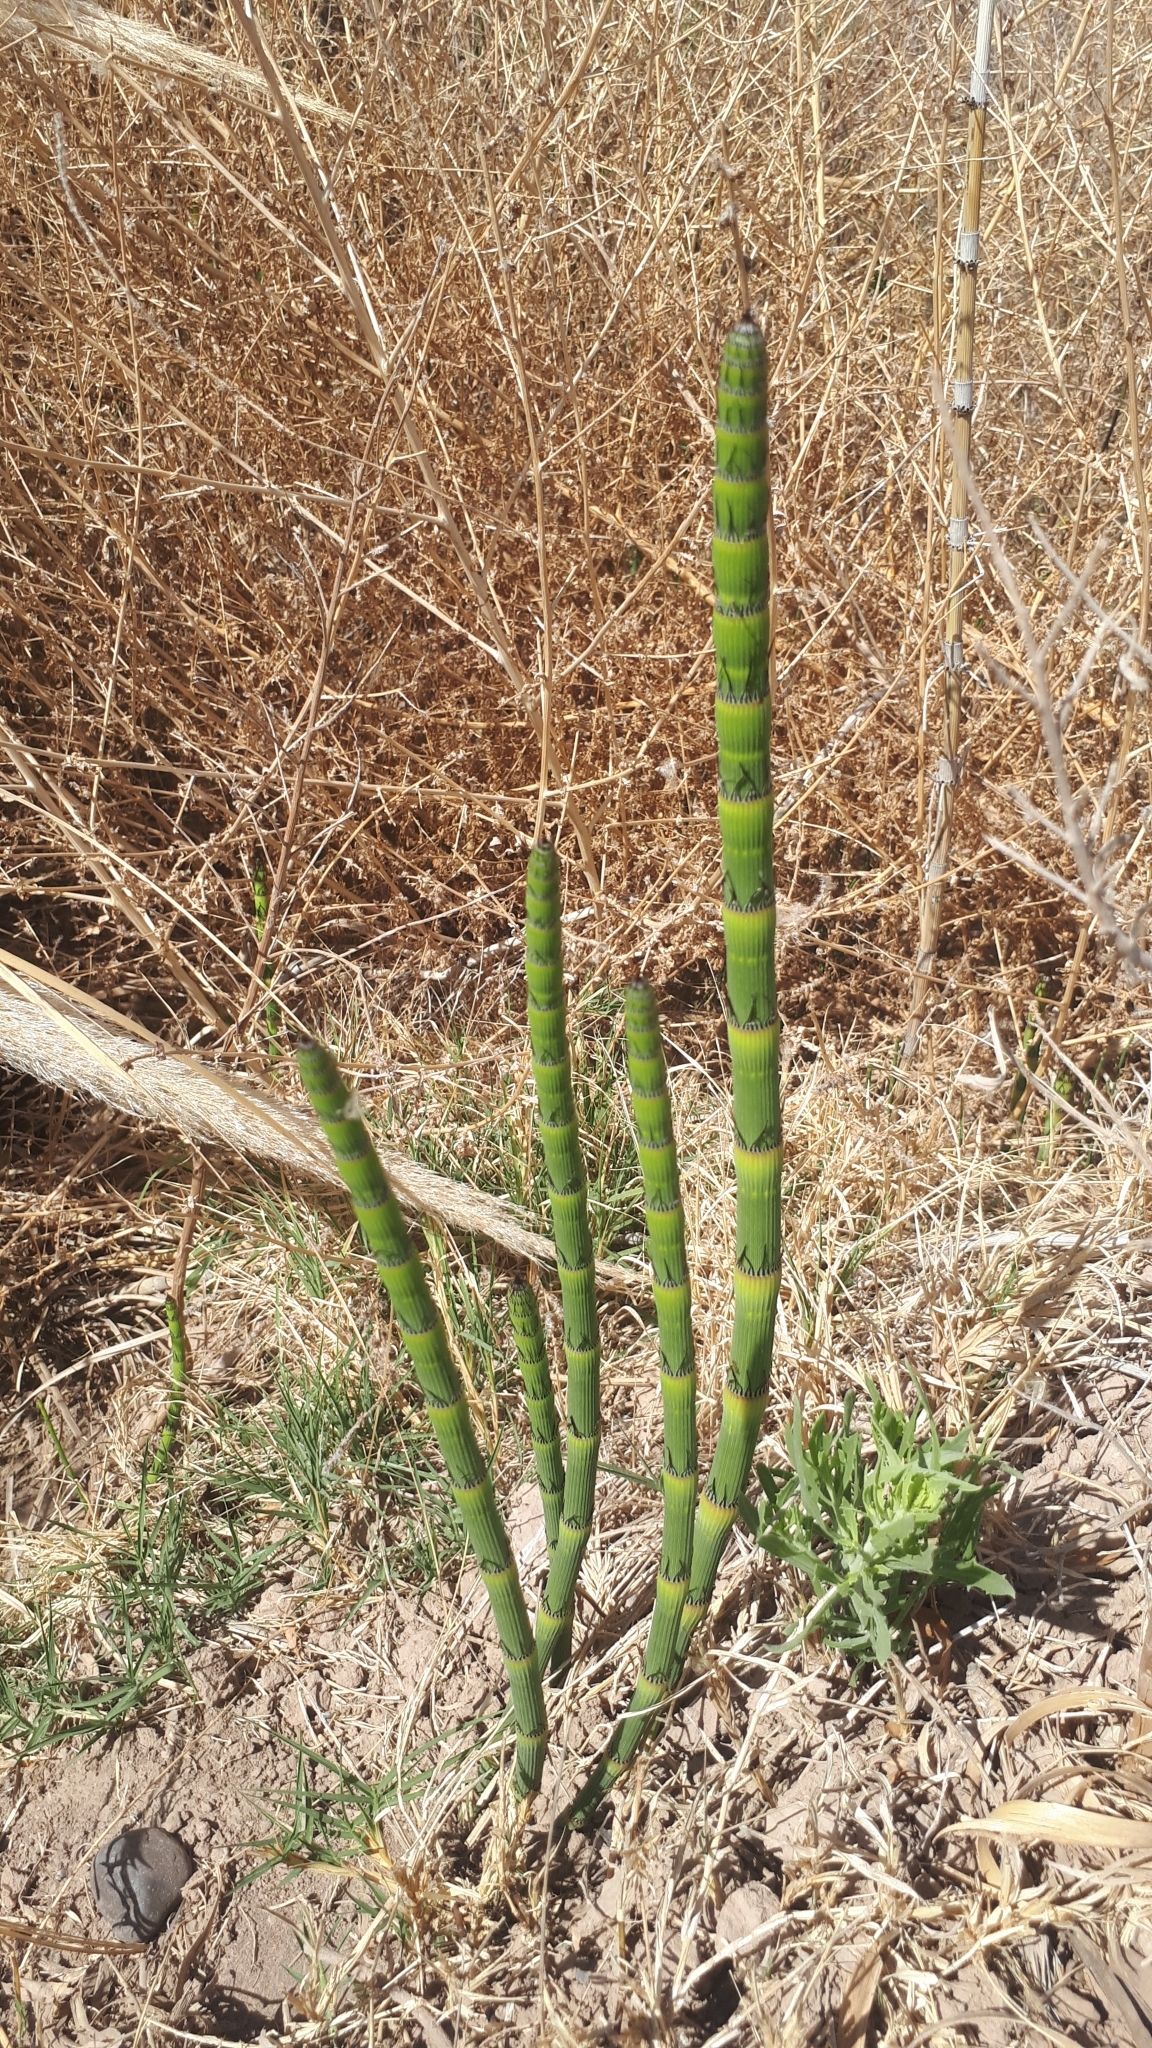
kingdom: Plantae
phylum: Tracheophyta
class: Polypodiopsida
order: Equisetales
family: Equisetaceae
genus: Equisetum
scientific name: Equisetum giganteum
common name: Giant horsetail
